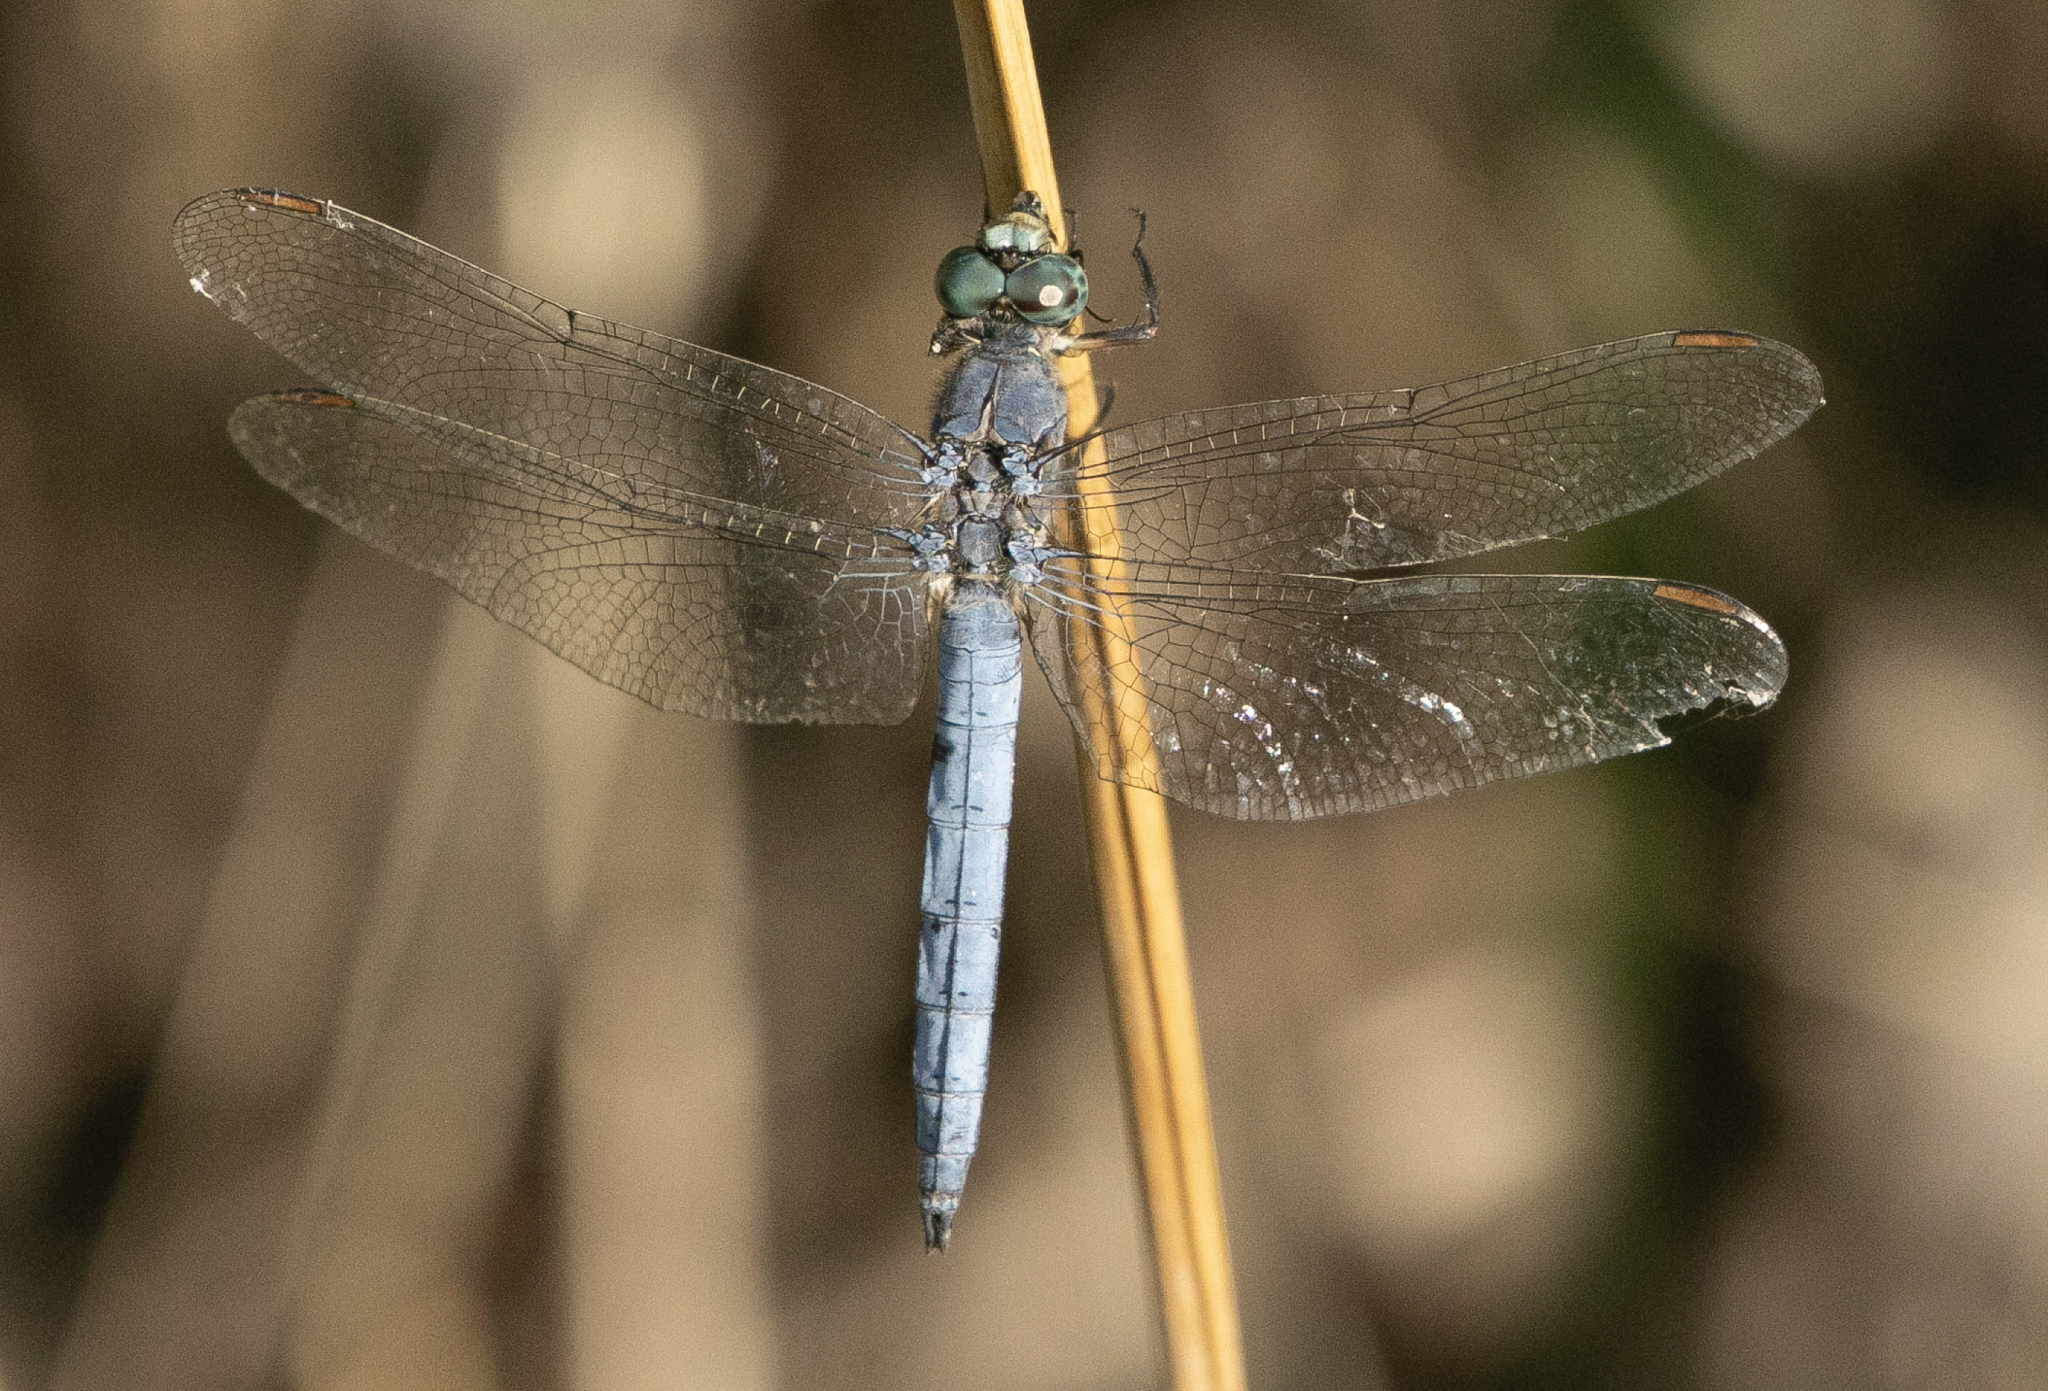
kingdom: Animalia
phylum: Arthropoda
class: Insecta
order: Odonata
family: Libellulidae
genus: Orthetrum
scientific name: Orthetrum coerulescens
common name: Keeled skimmer
